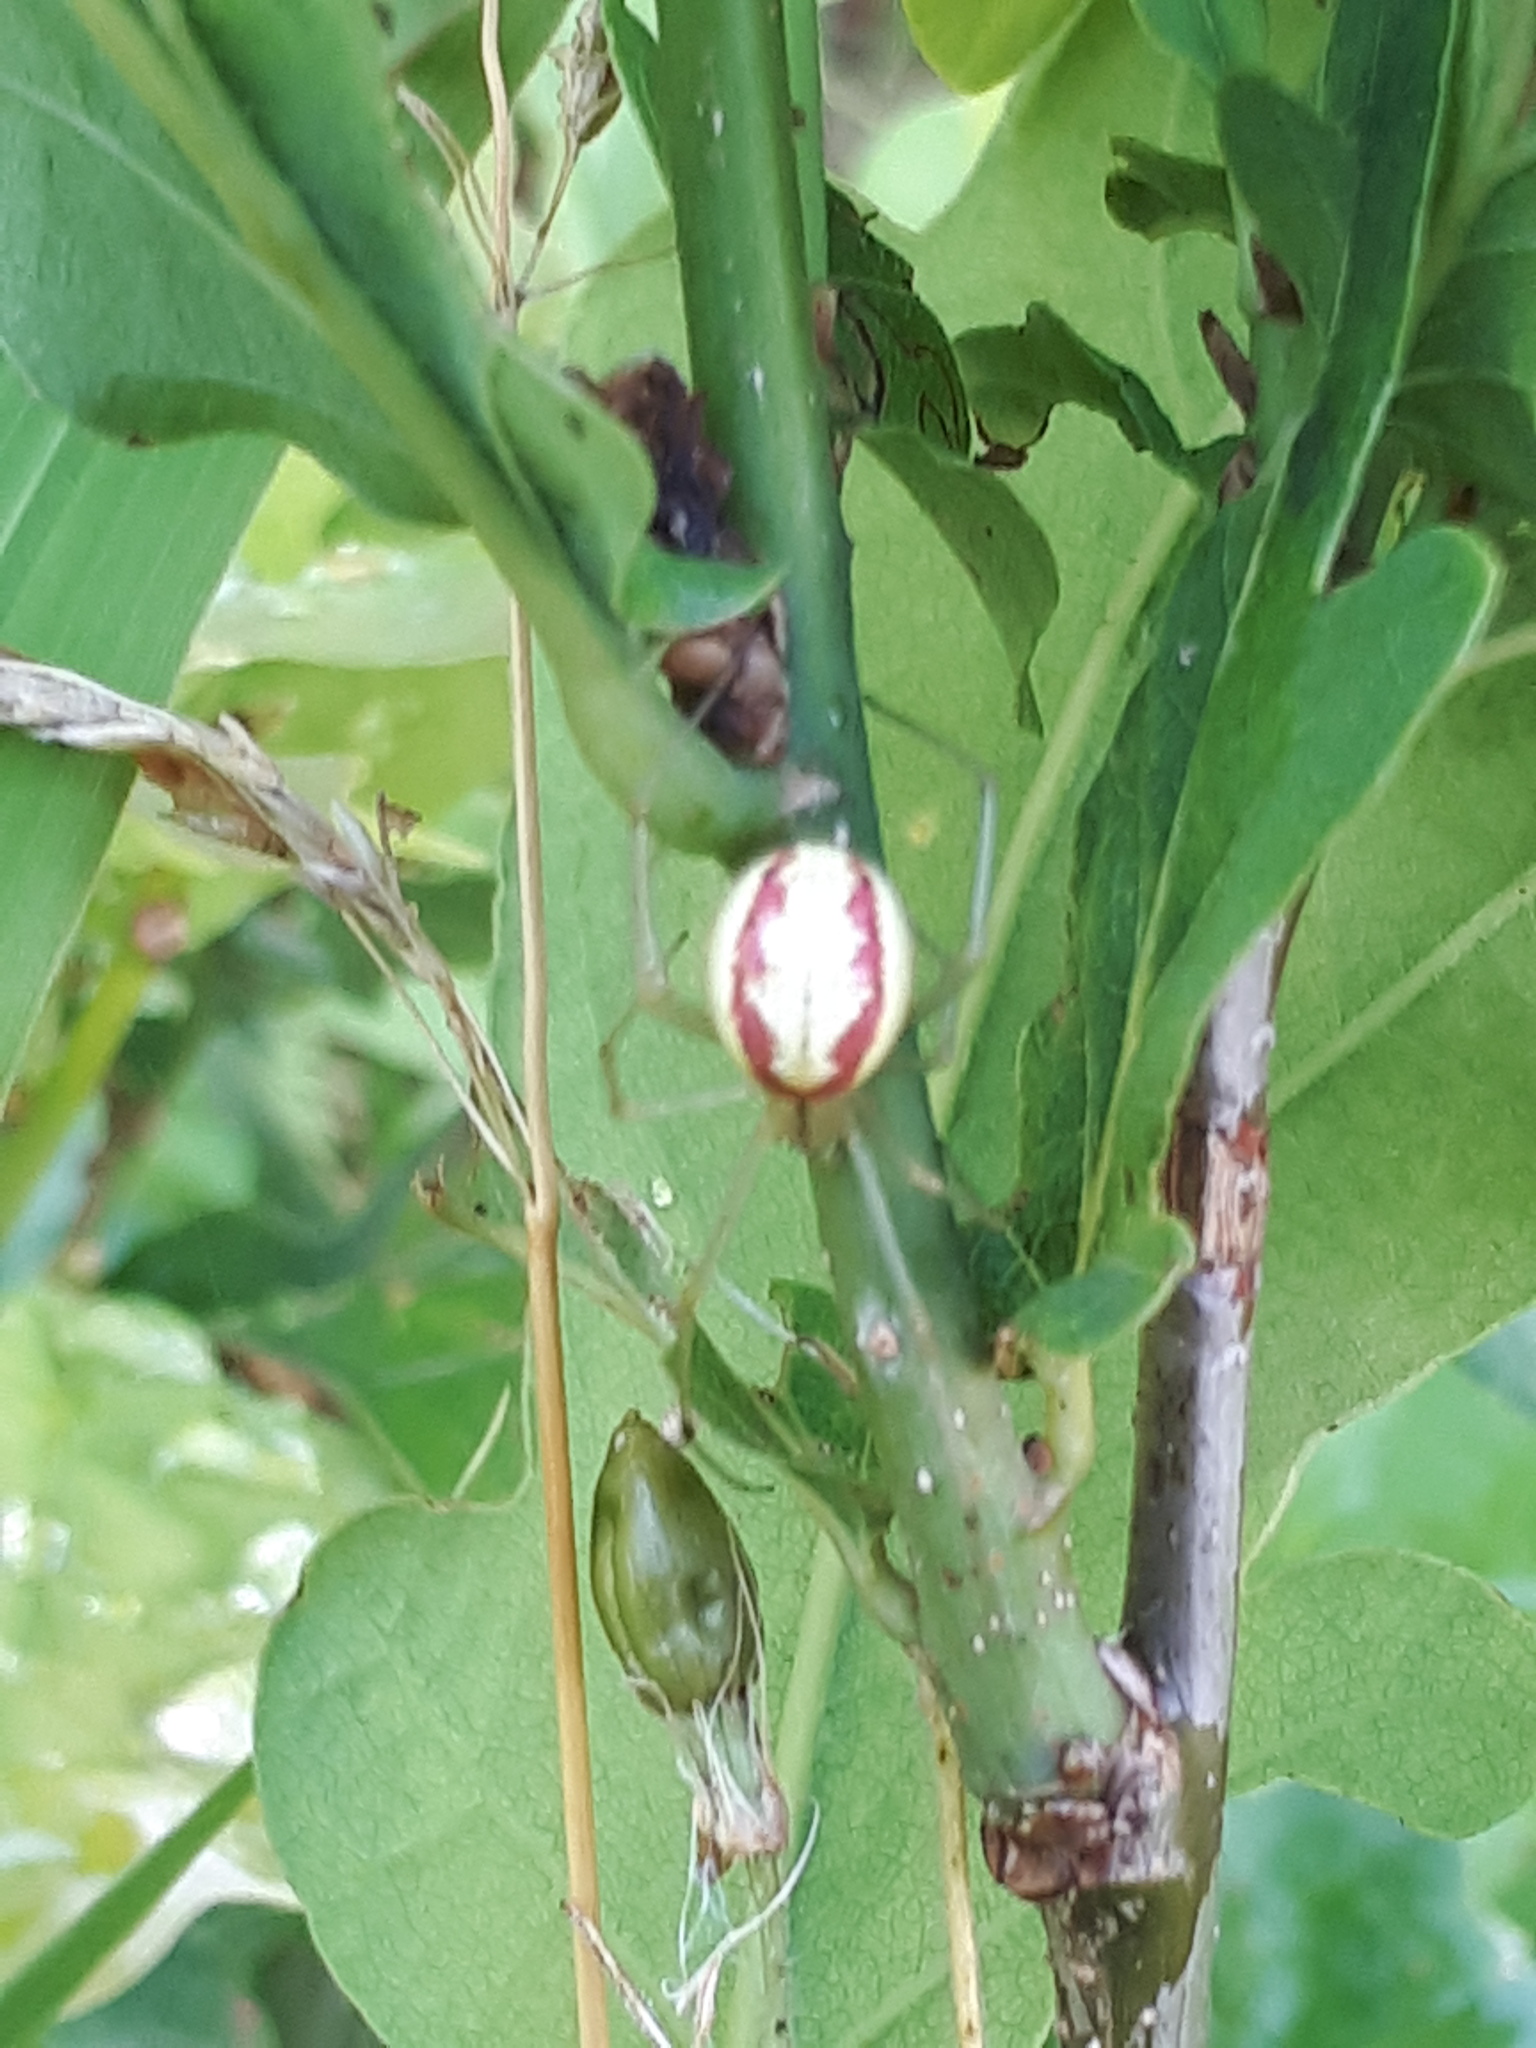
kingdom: Animalia
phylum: Arthropoda
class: Arachnida
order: Araneae
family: Theridiidae
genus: Enoplognatha
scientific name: Enoplognatha ovata
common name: Common candy-striped spider
